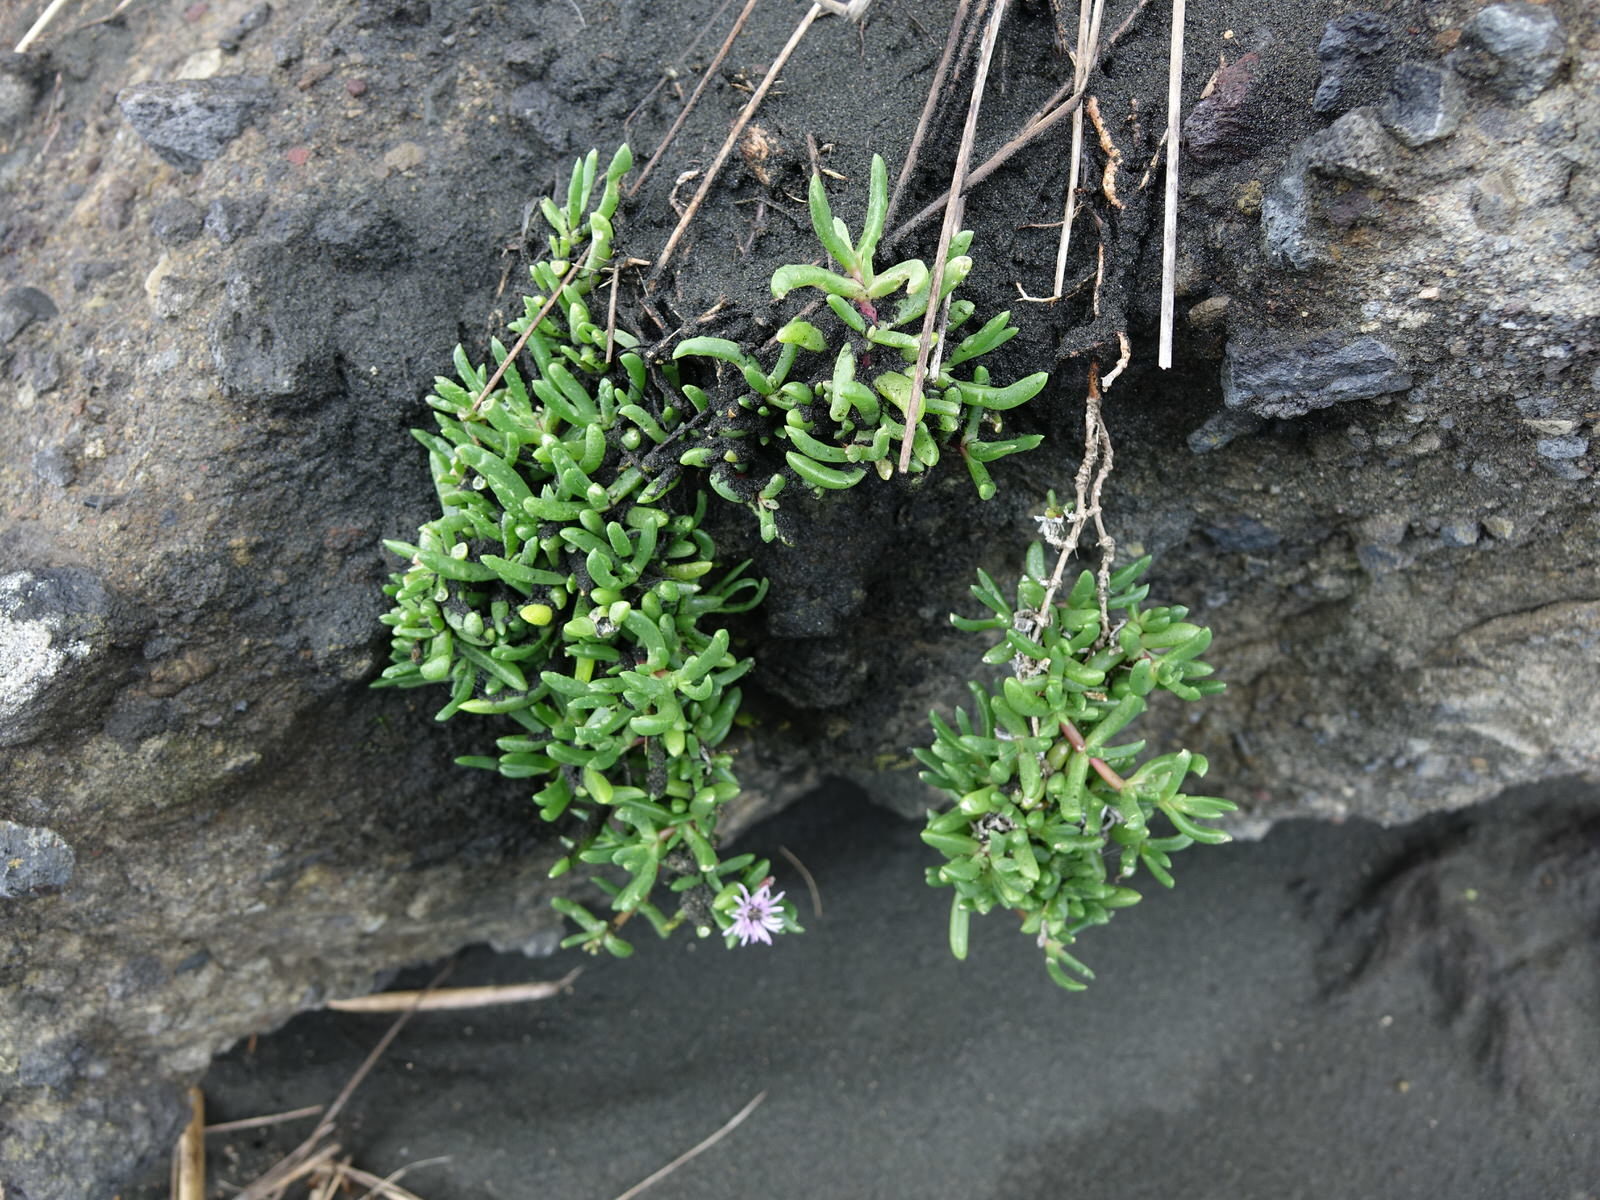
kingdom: Plantae
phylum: Tracheophyta
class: Magnoliopsida
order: Caryophyllales
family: Aizoaceae
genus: Disphyma
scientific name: Disphyma australe
